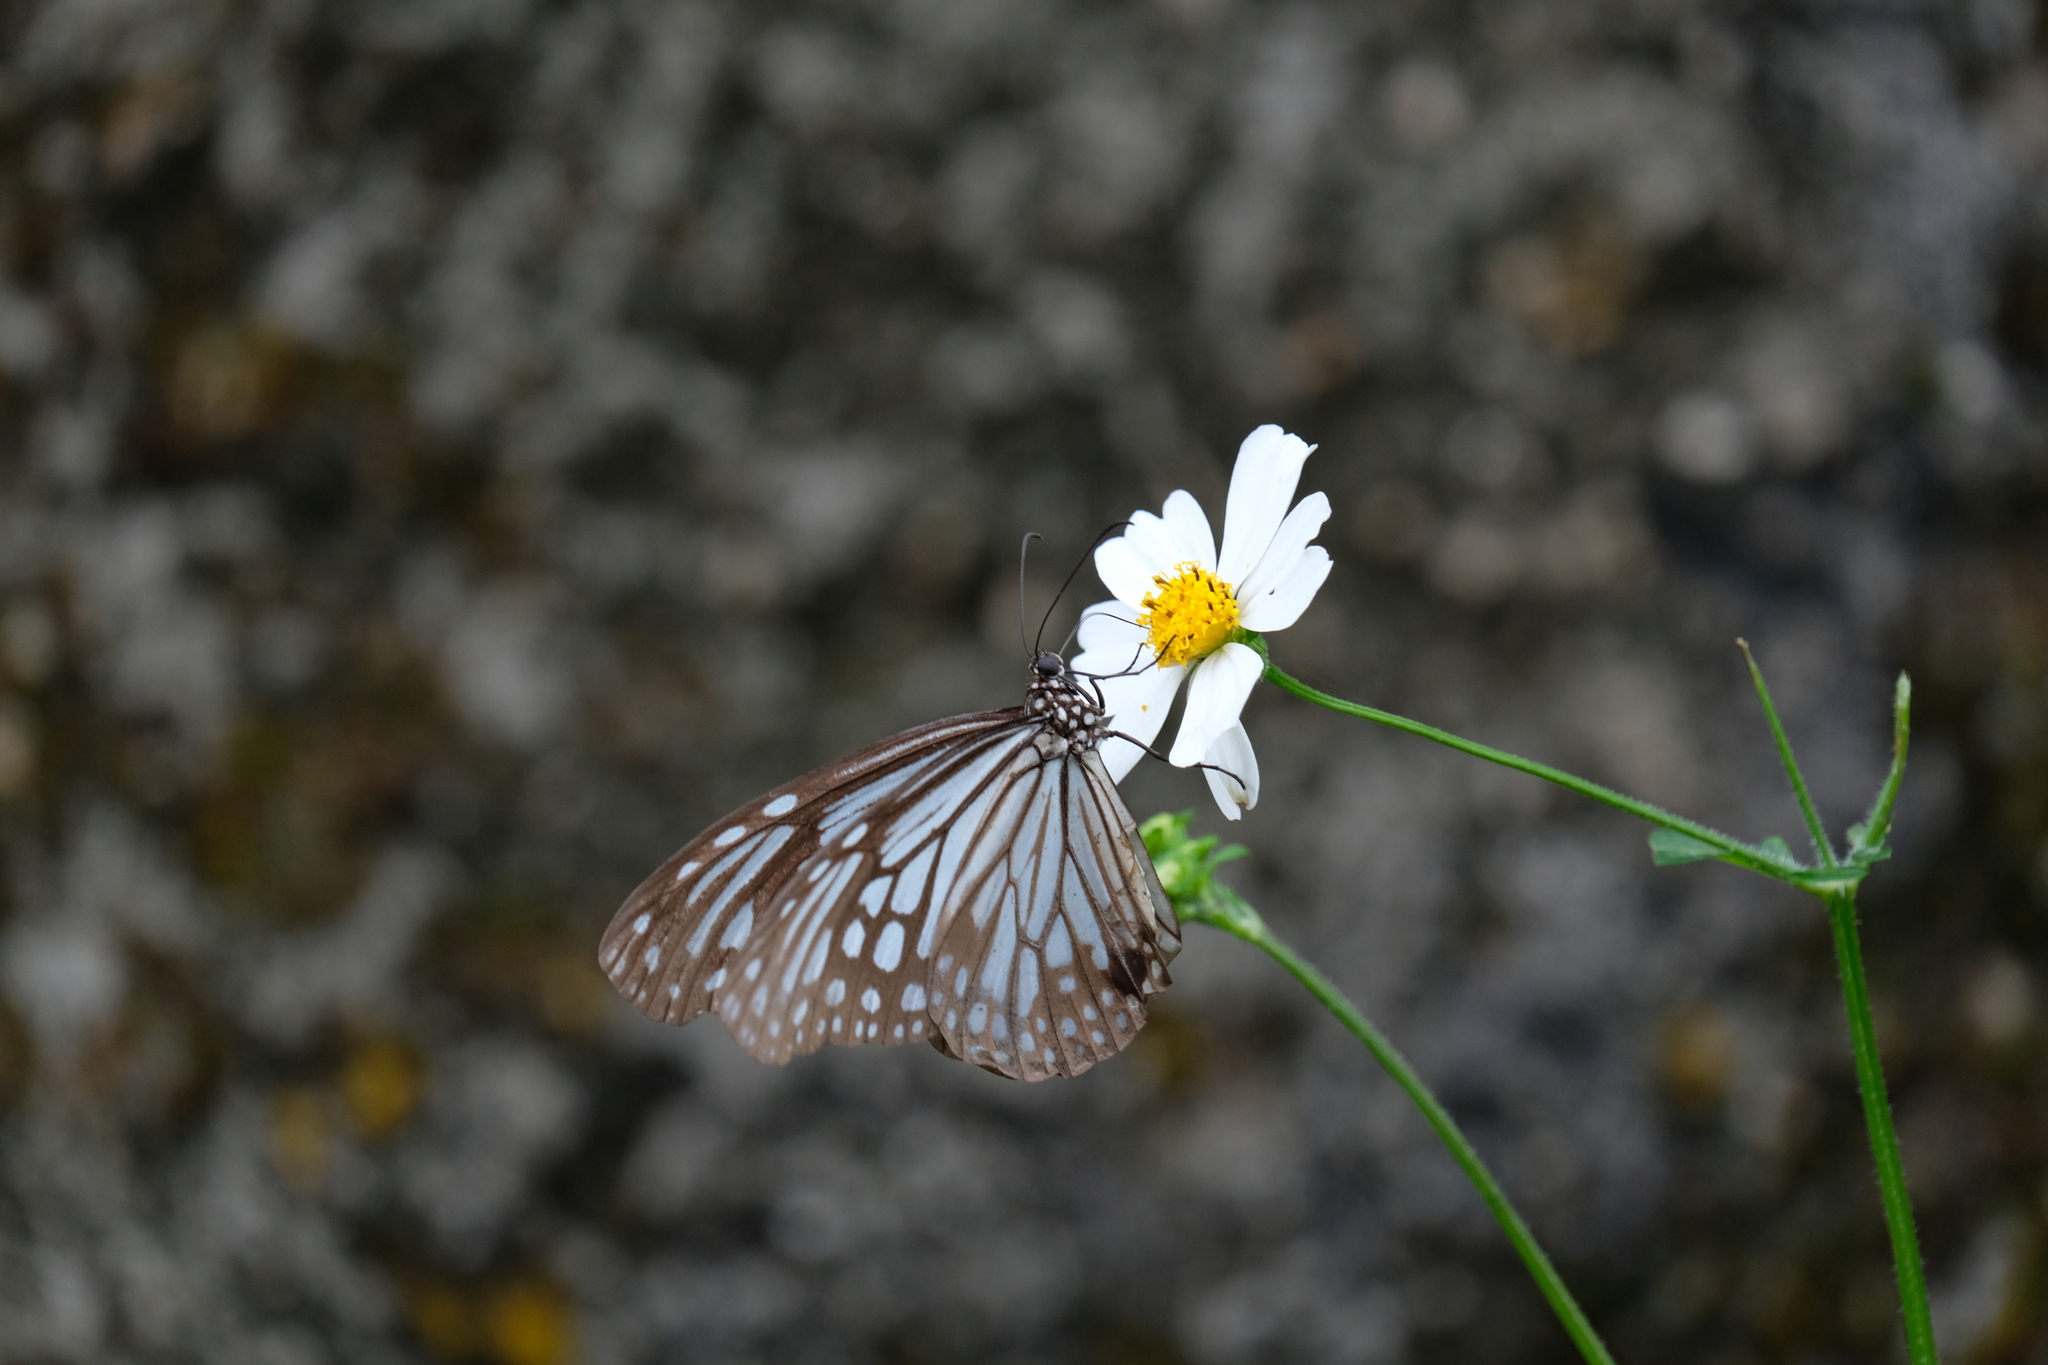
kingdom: Animalia
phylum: Arthropoda
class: Insecta
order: Lepidoptera
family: Nymphalidae
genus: Parantica
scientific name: Parantica aglea
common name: Glassy tiger
